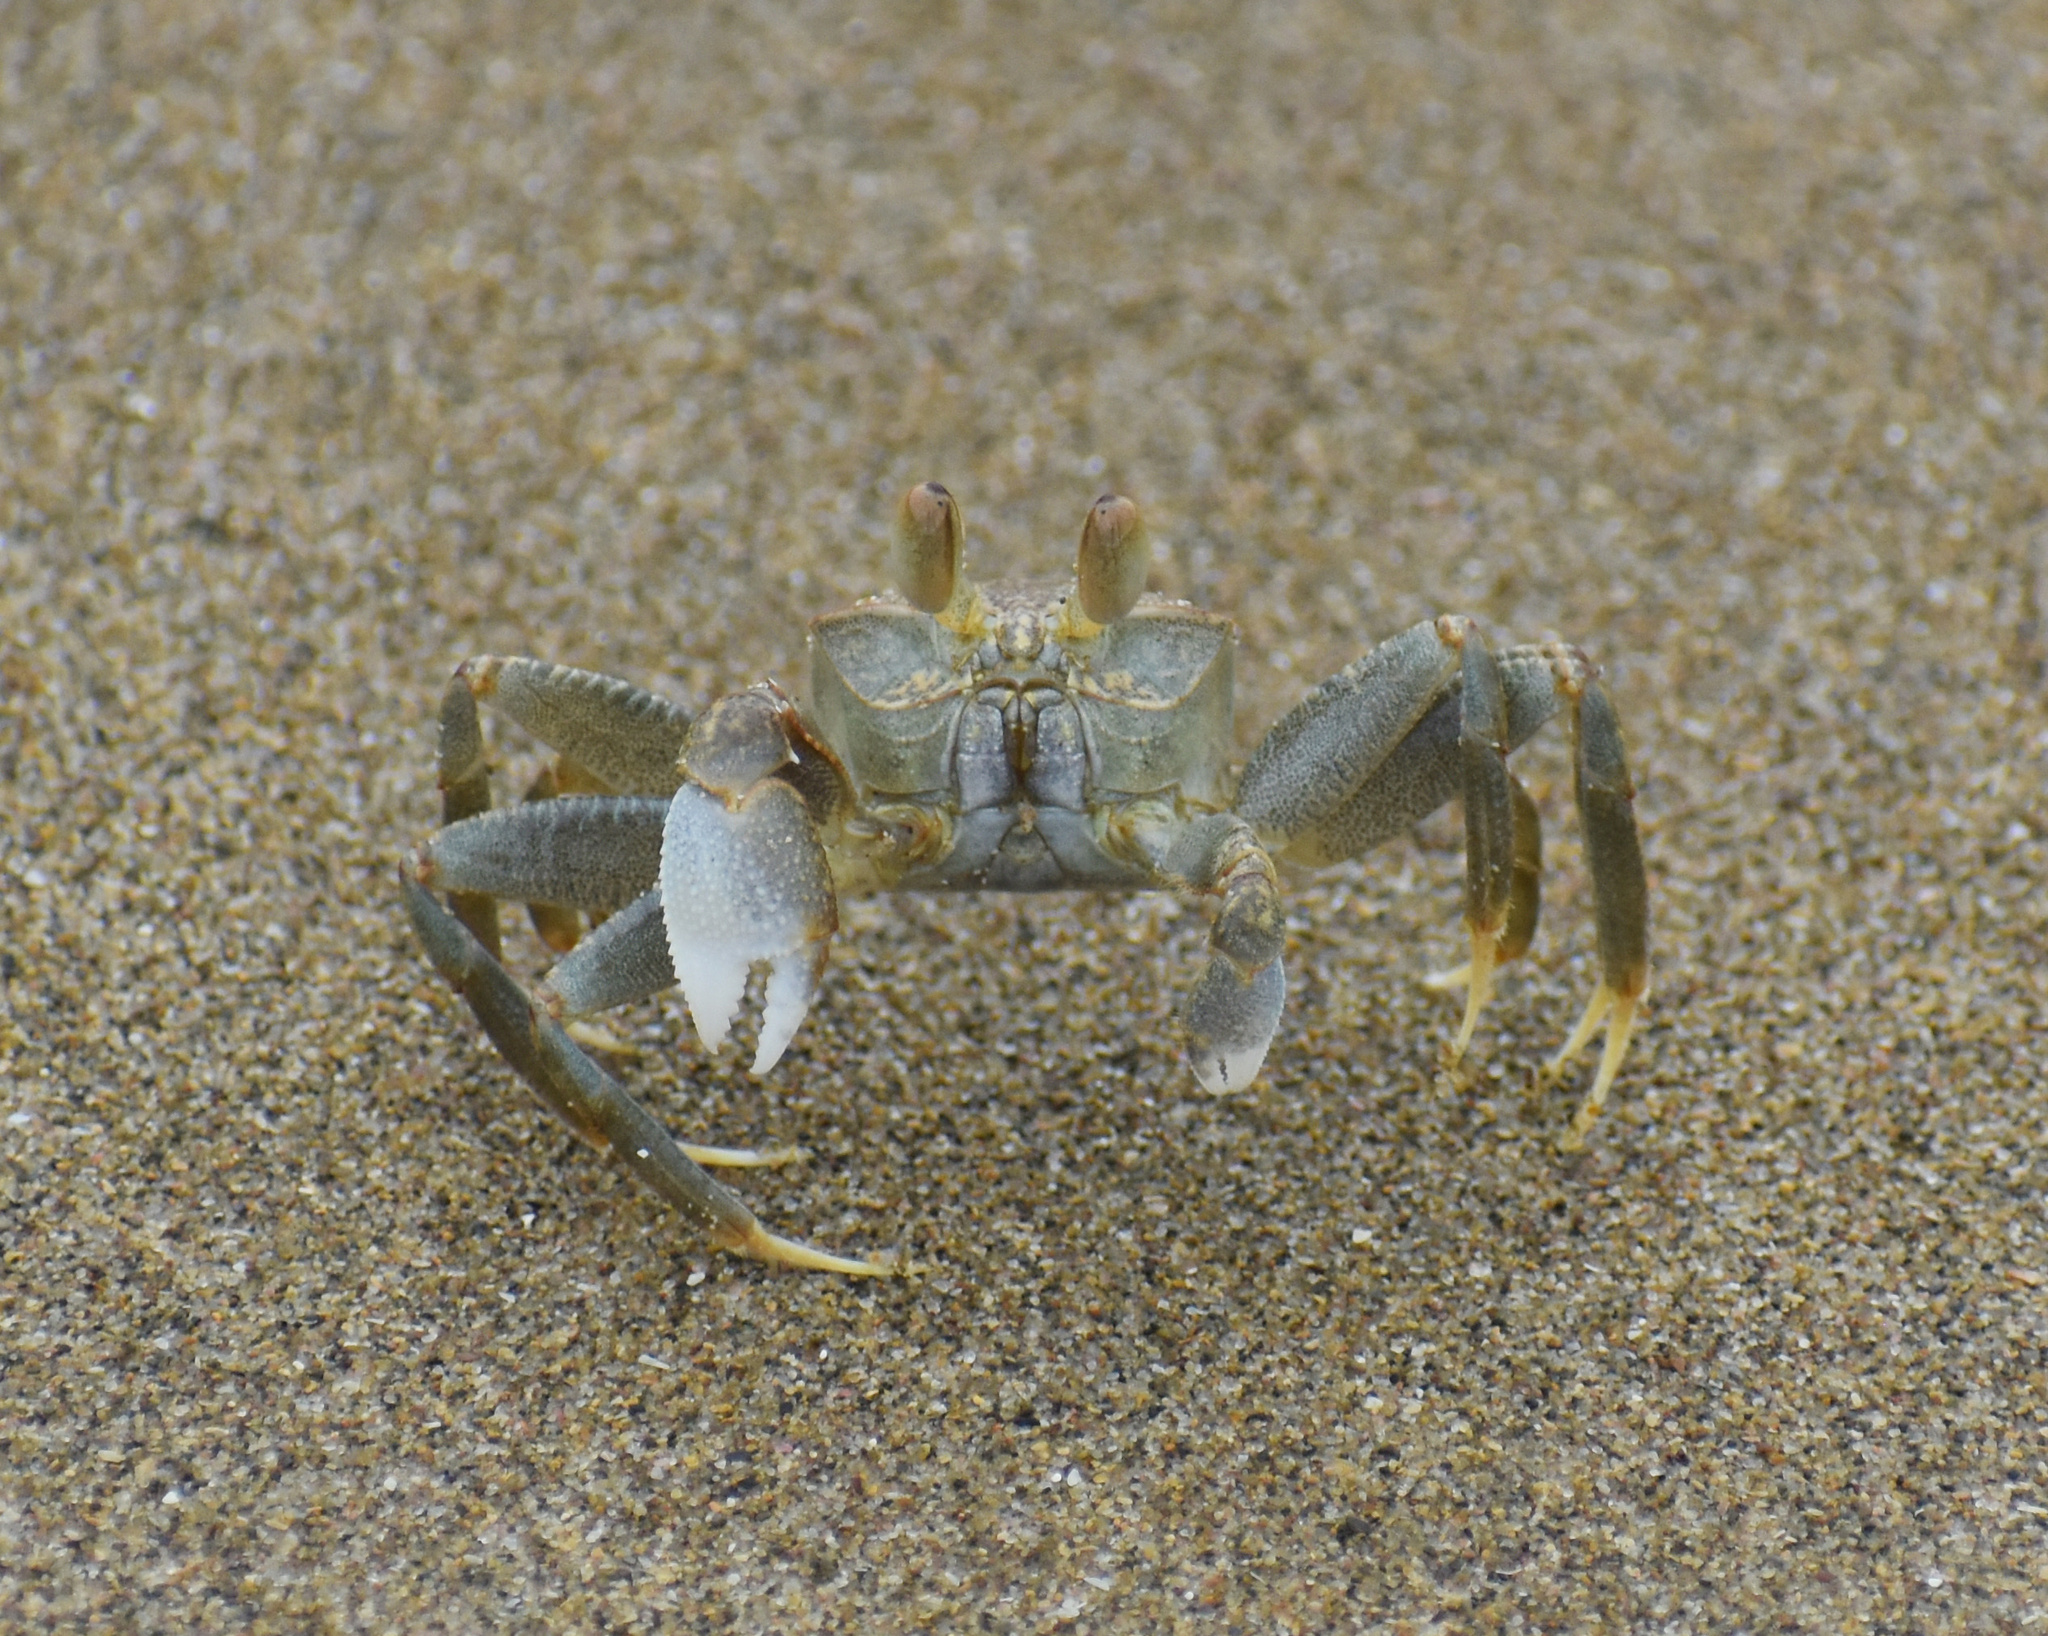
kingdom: Animalia
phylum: Arthropoda
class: Malacostraca
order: Decapoda
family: Ocypodidae
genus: Ocypode
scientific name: Ocypode ceratophthalmus
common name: Indo-pacific ghost crab
